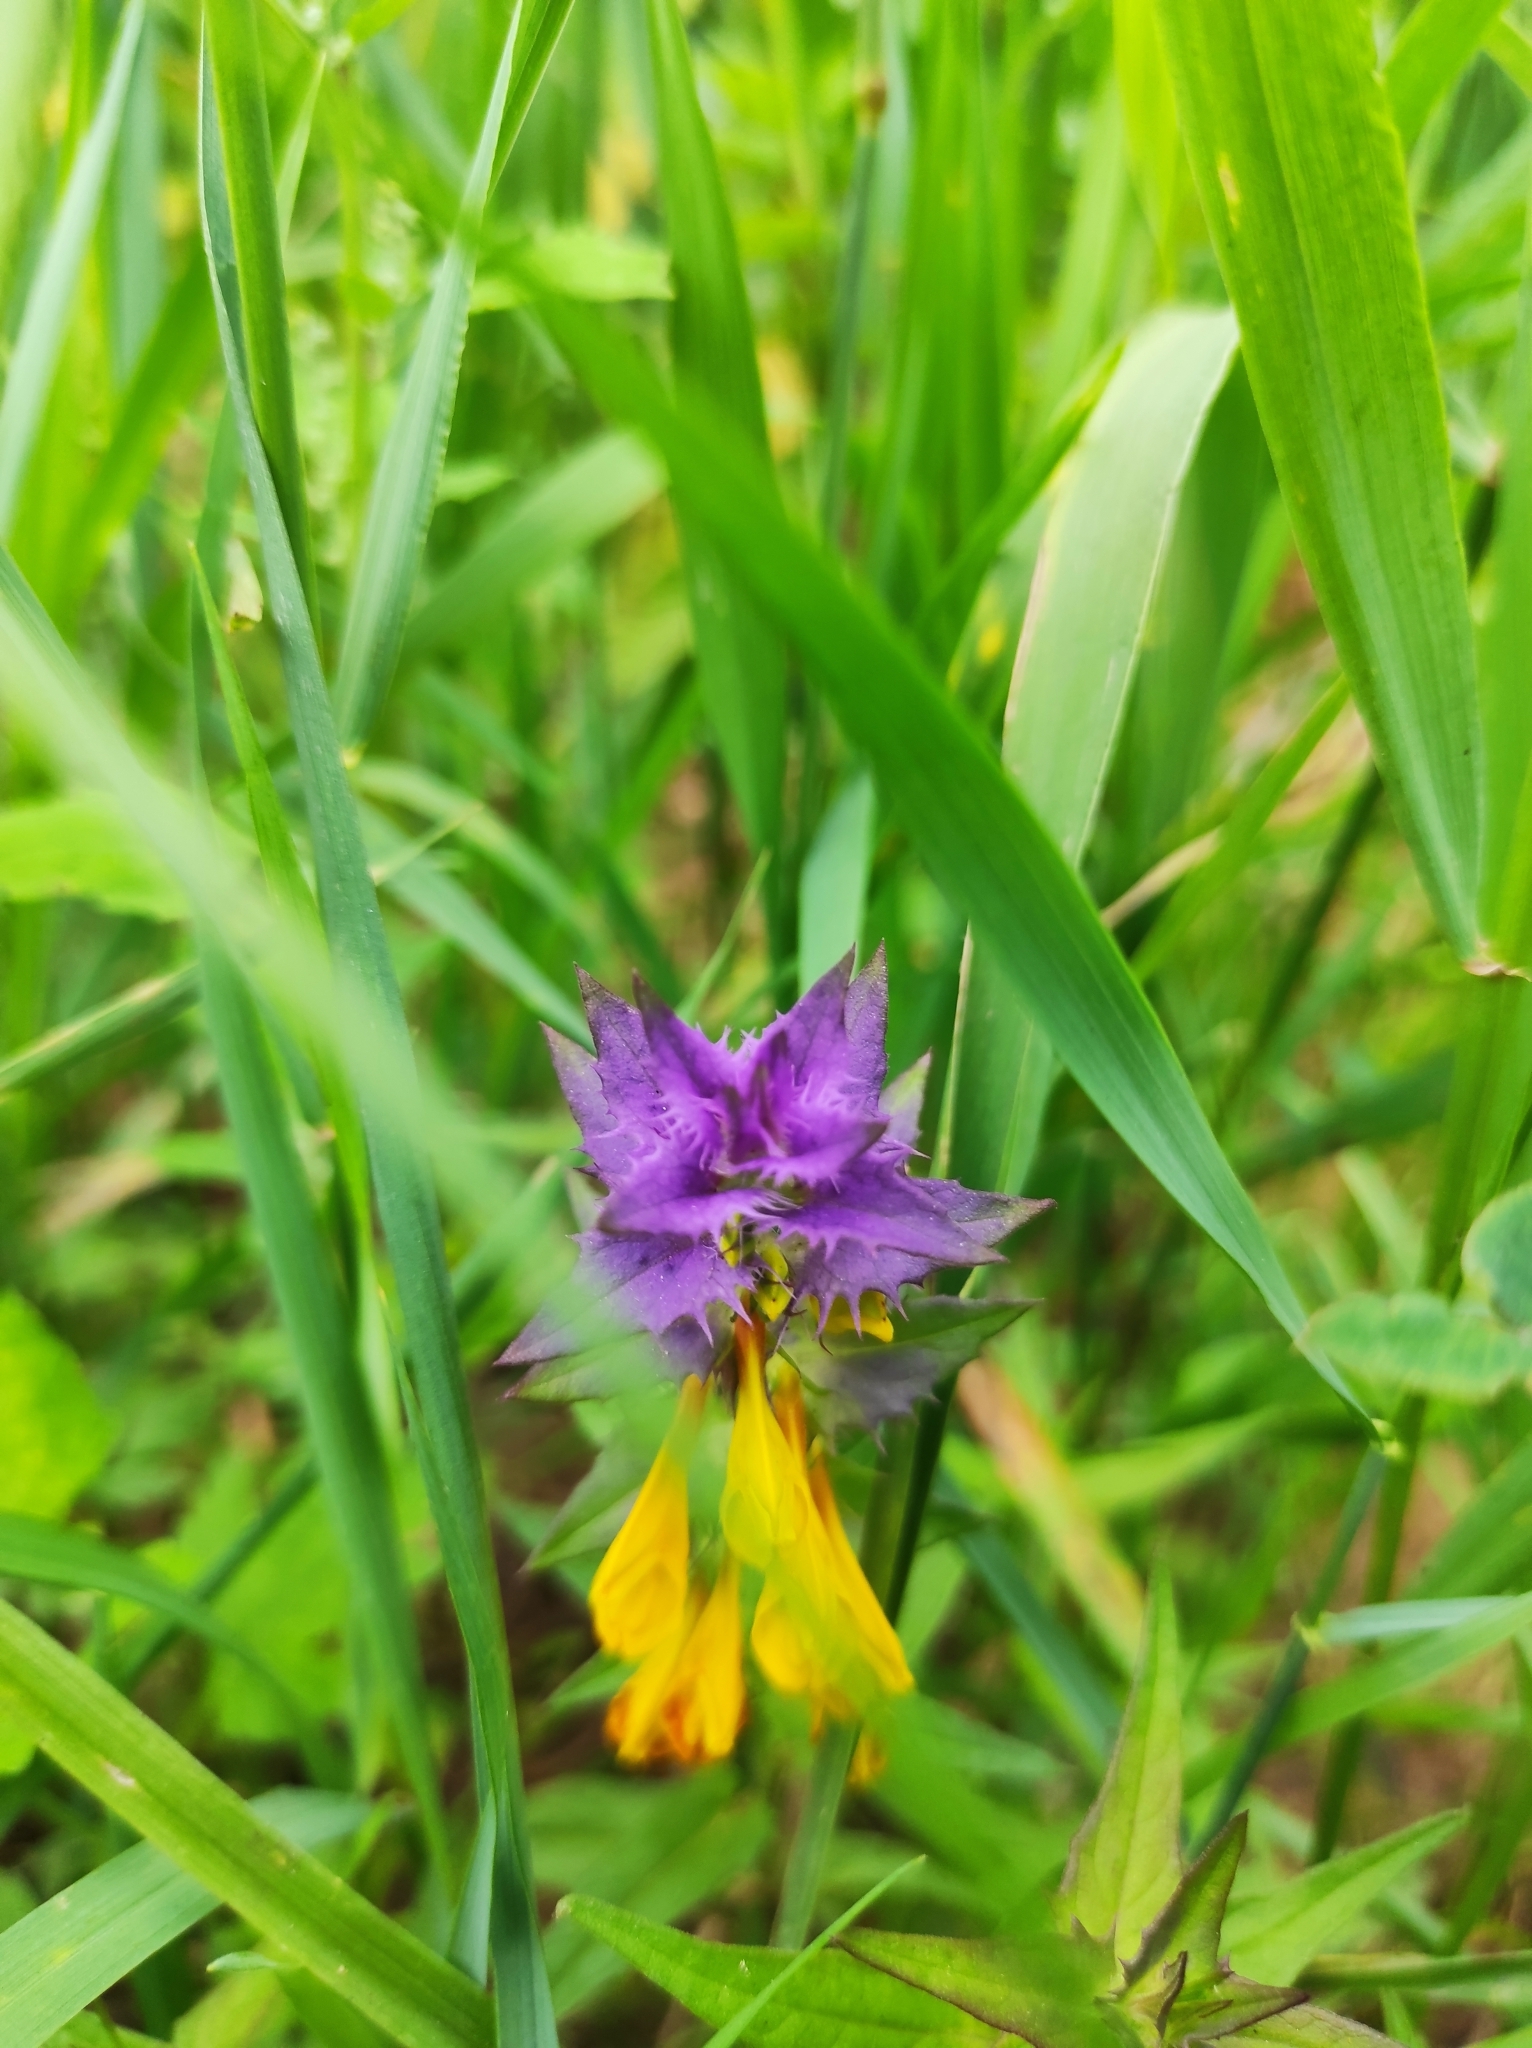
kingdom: Plantae
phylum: Tracheophyta
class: Magnoliopsida
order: Lamiales
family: Orobanchaceae
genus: Melampyrum
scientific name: Melampyrum nemorosum
